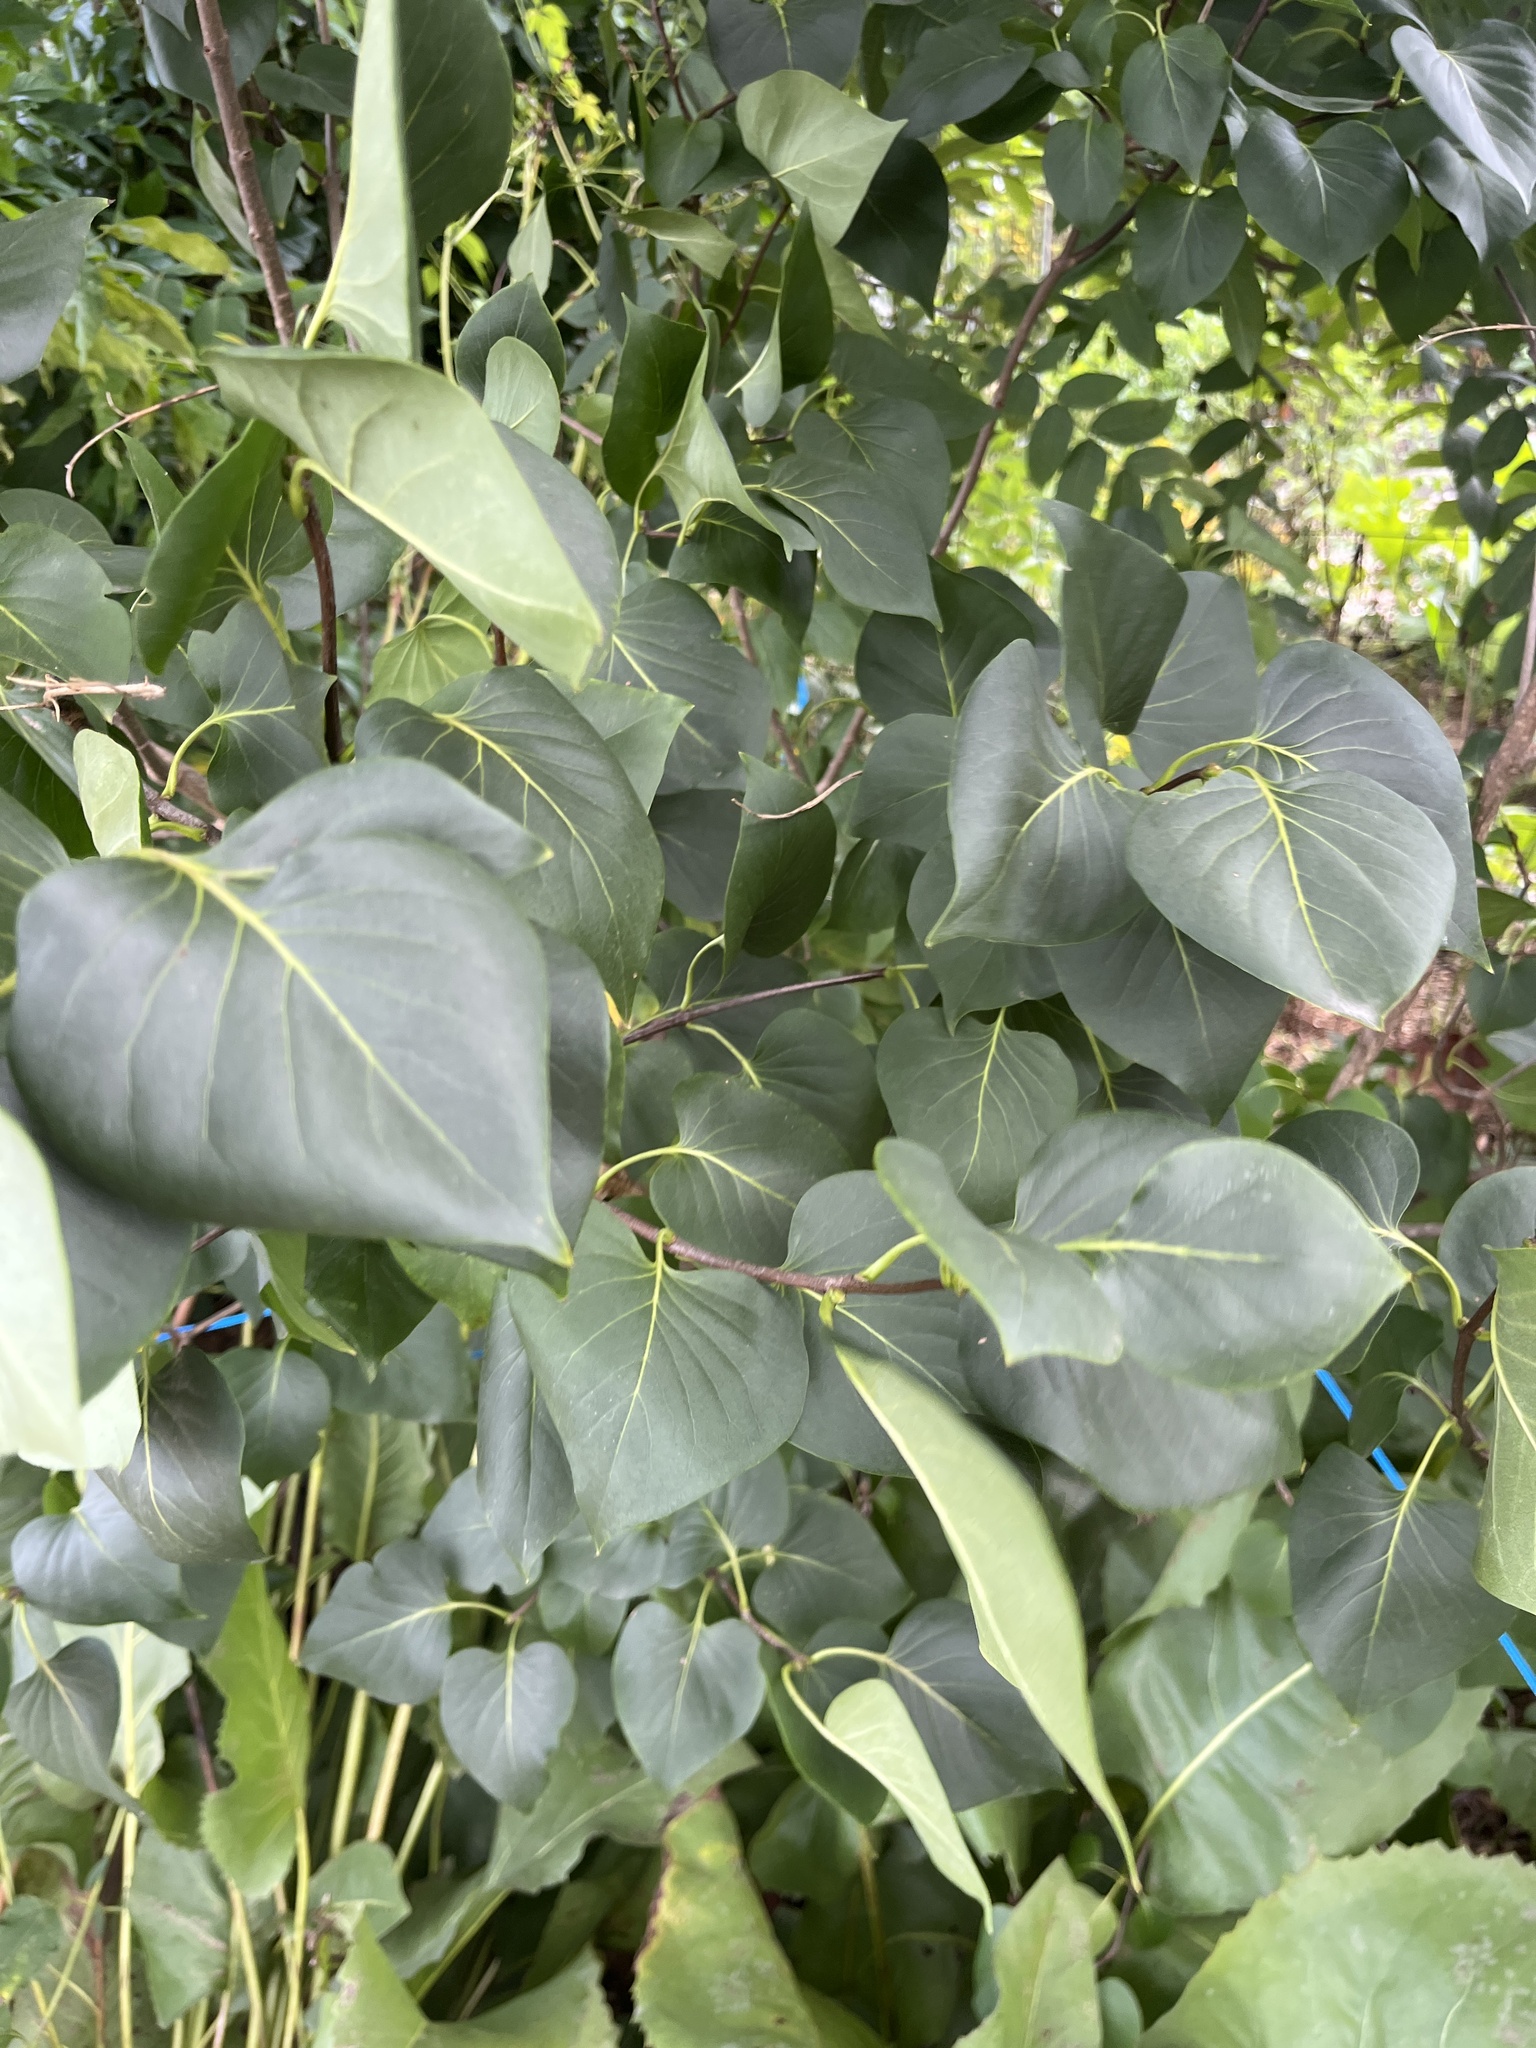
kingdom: Plantae
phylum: Tracheophyta
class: Magnoliopsida
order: Lamiales
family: Oleaceae
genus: Syringa
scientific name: Syringa vulgaris
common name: Common lilac
